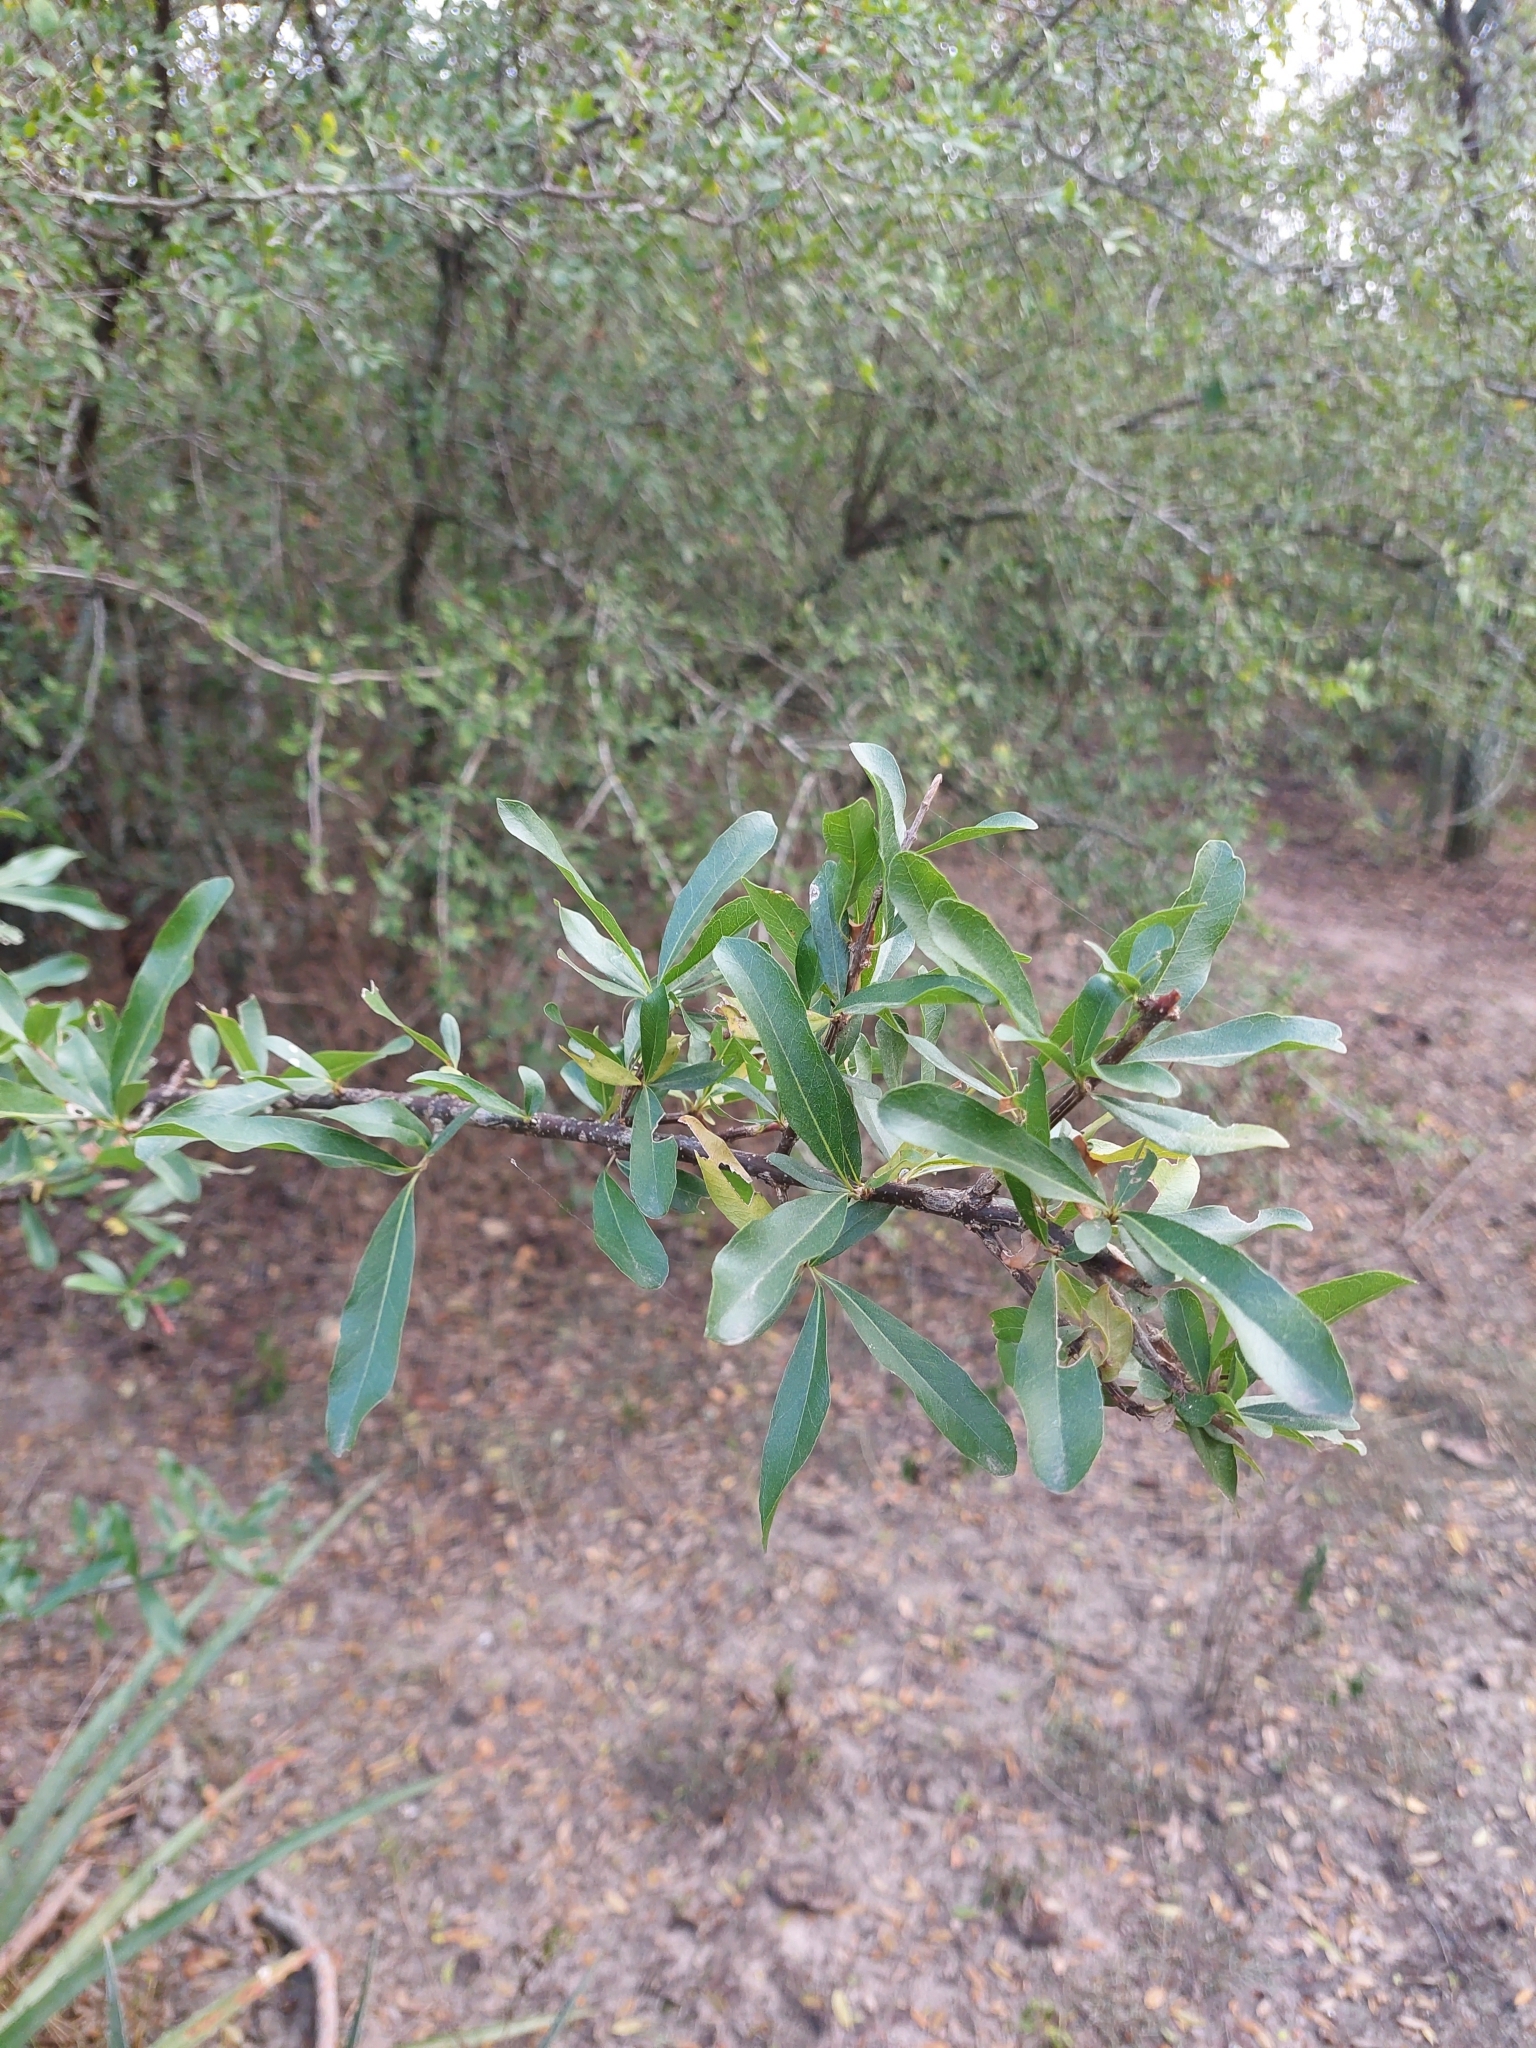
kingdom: Plantae
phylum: Tracheophyta
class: Magnoliopsida
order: Lamiales
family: Bignoniaceae
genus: Tabebuia
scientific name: Tabebuia nodosa
